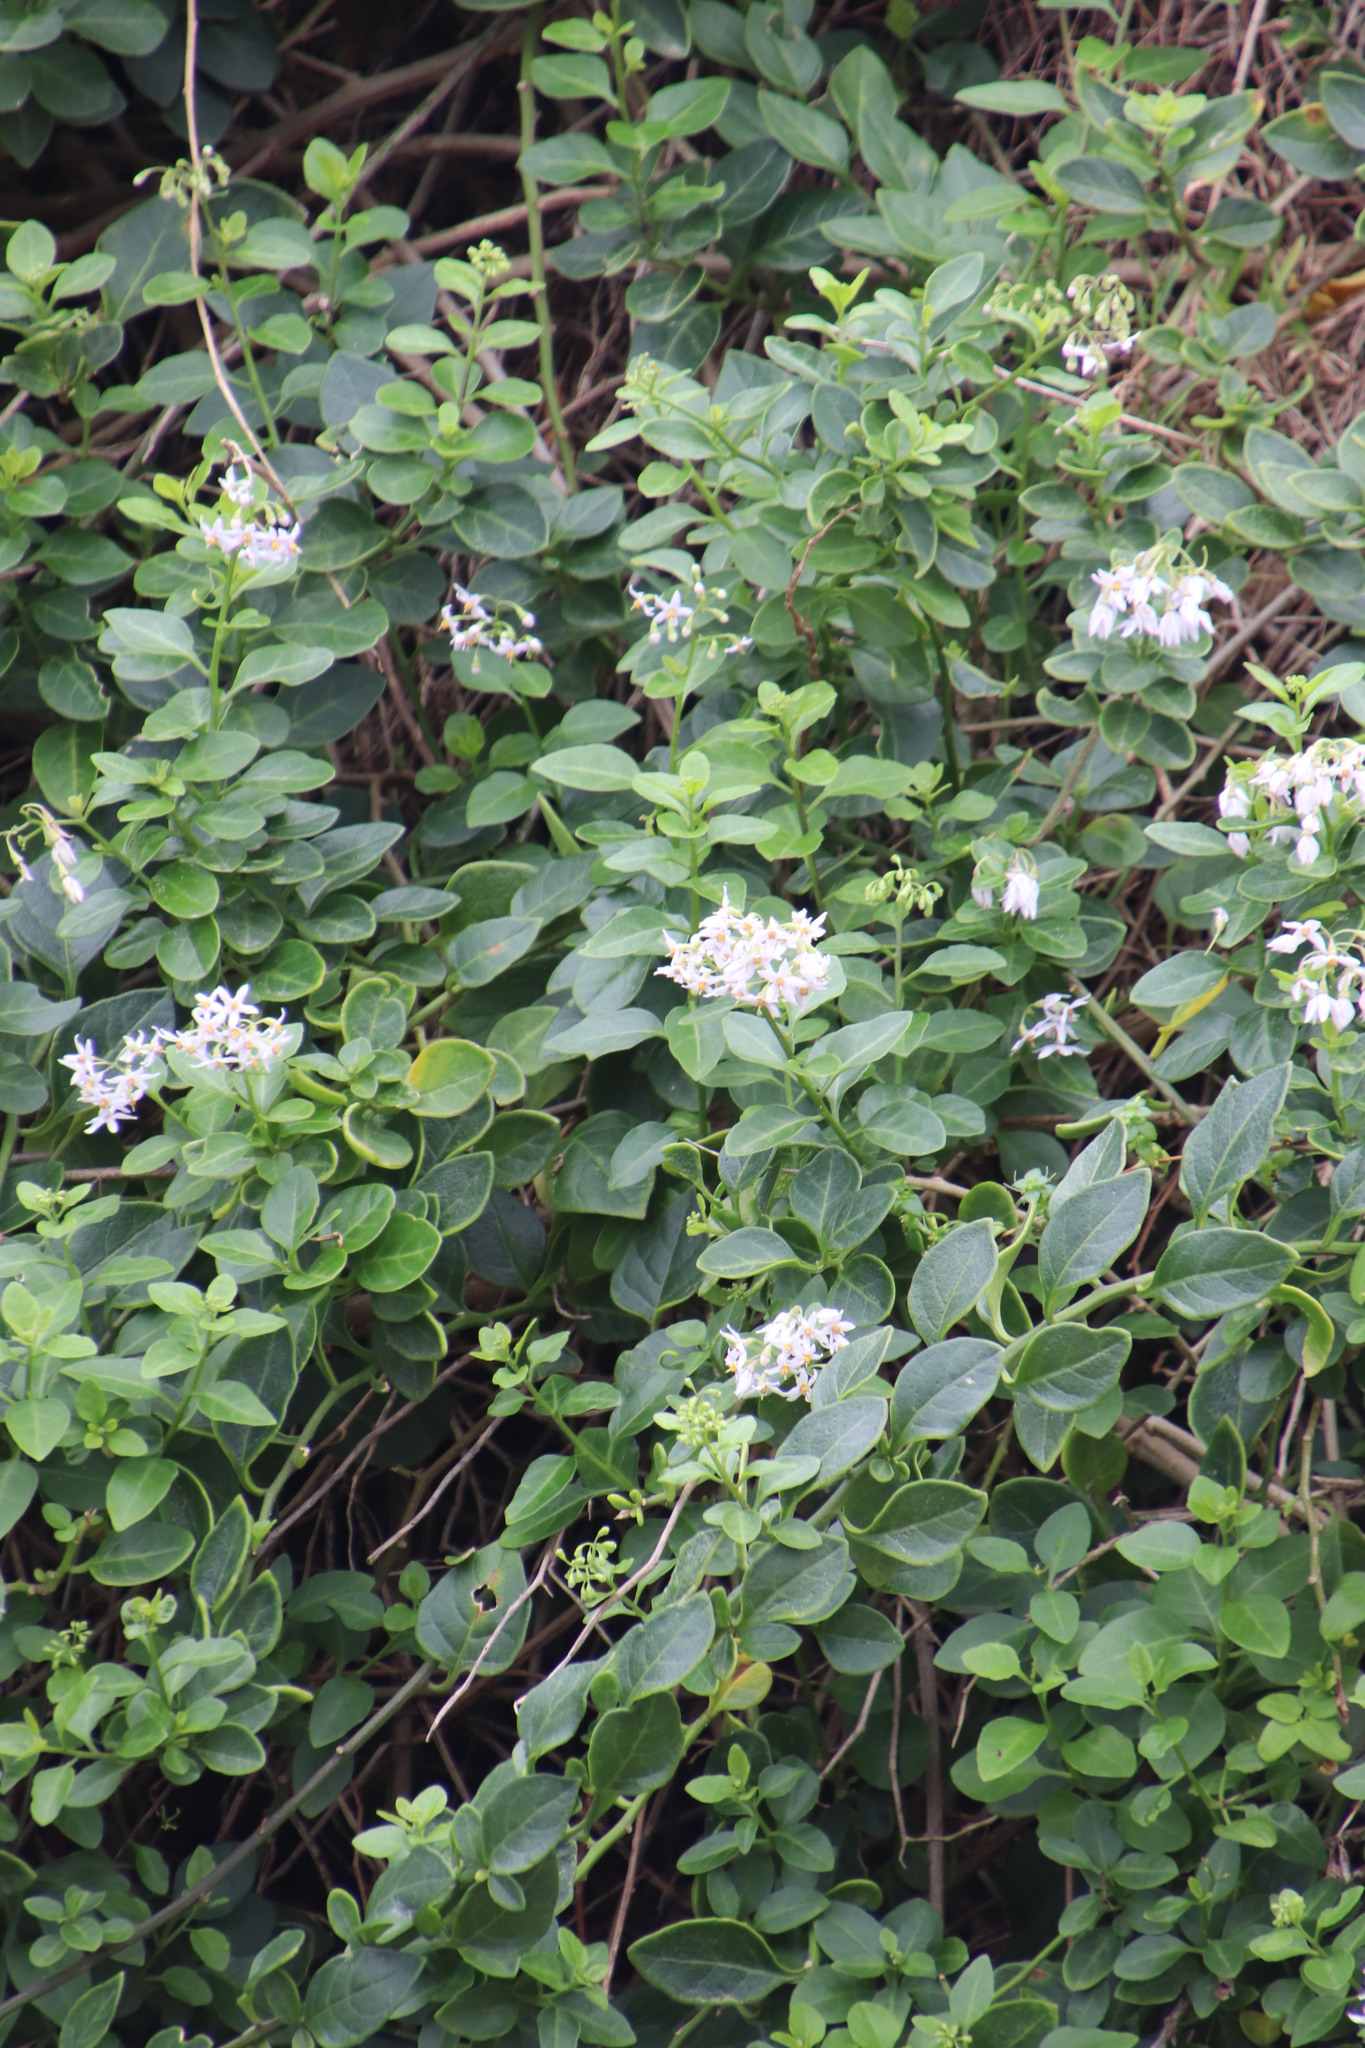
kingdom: Plantae
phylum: Tracheophyta
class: Magnoliopsida
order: Solanales
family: Solanaceae
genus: Solanum
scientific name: Solanum africanum
